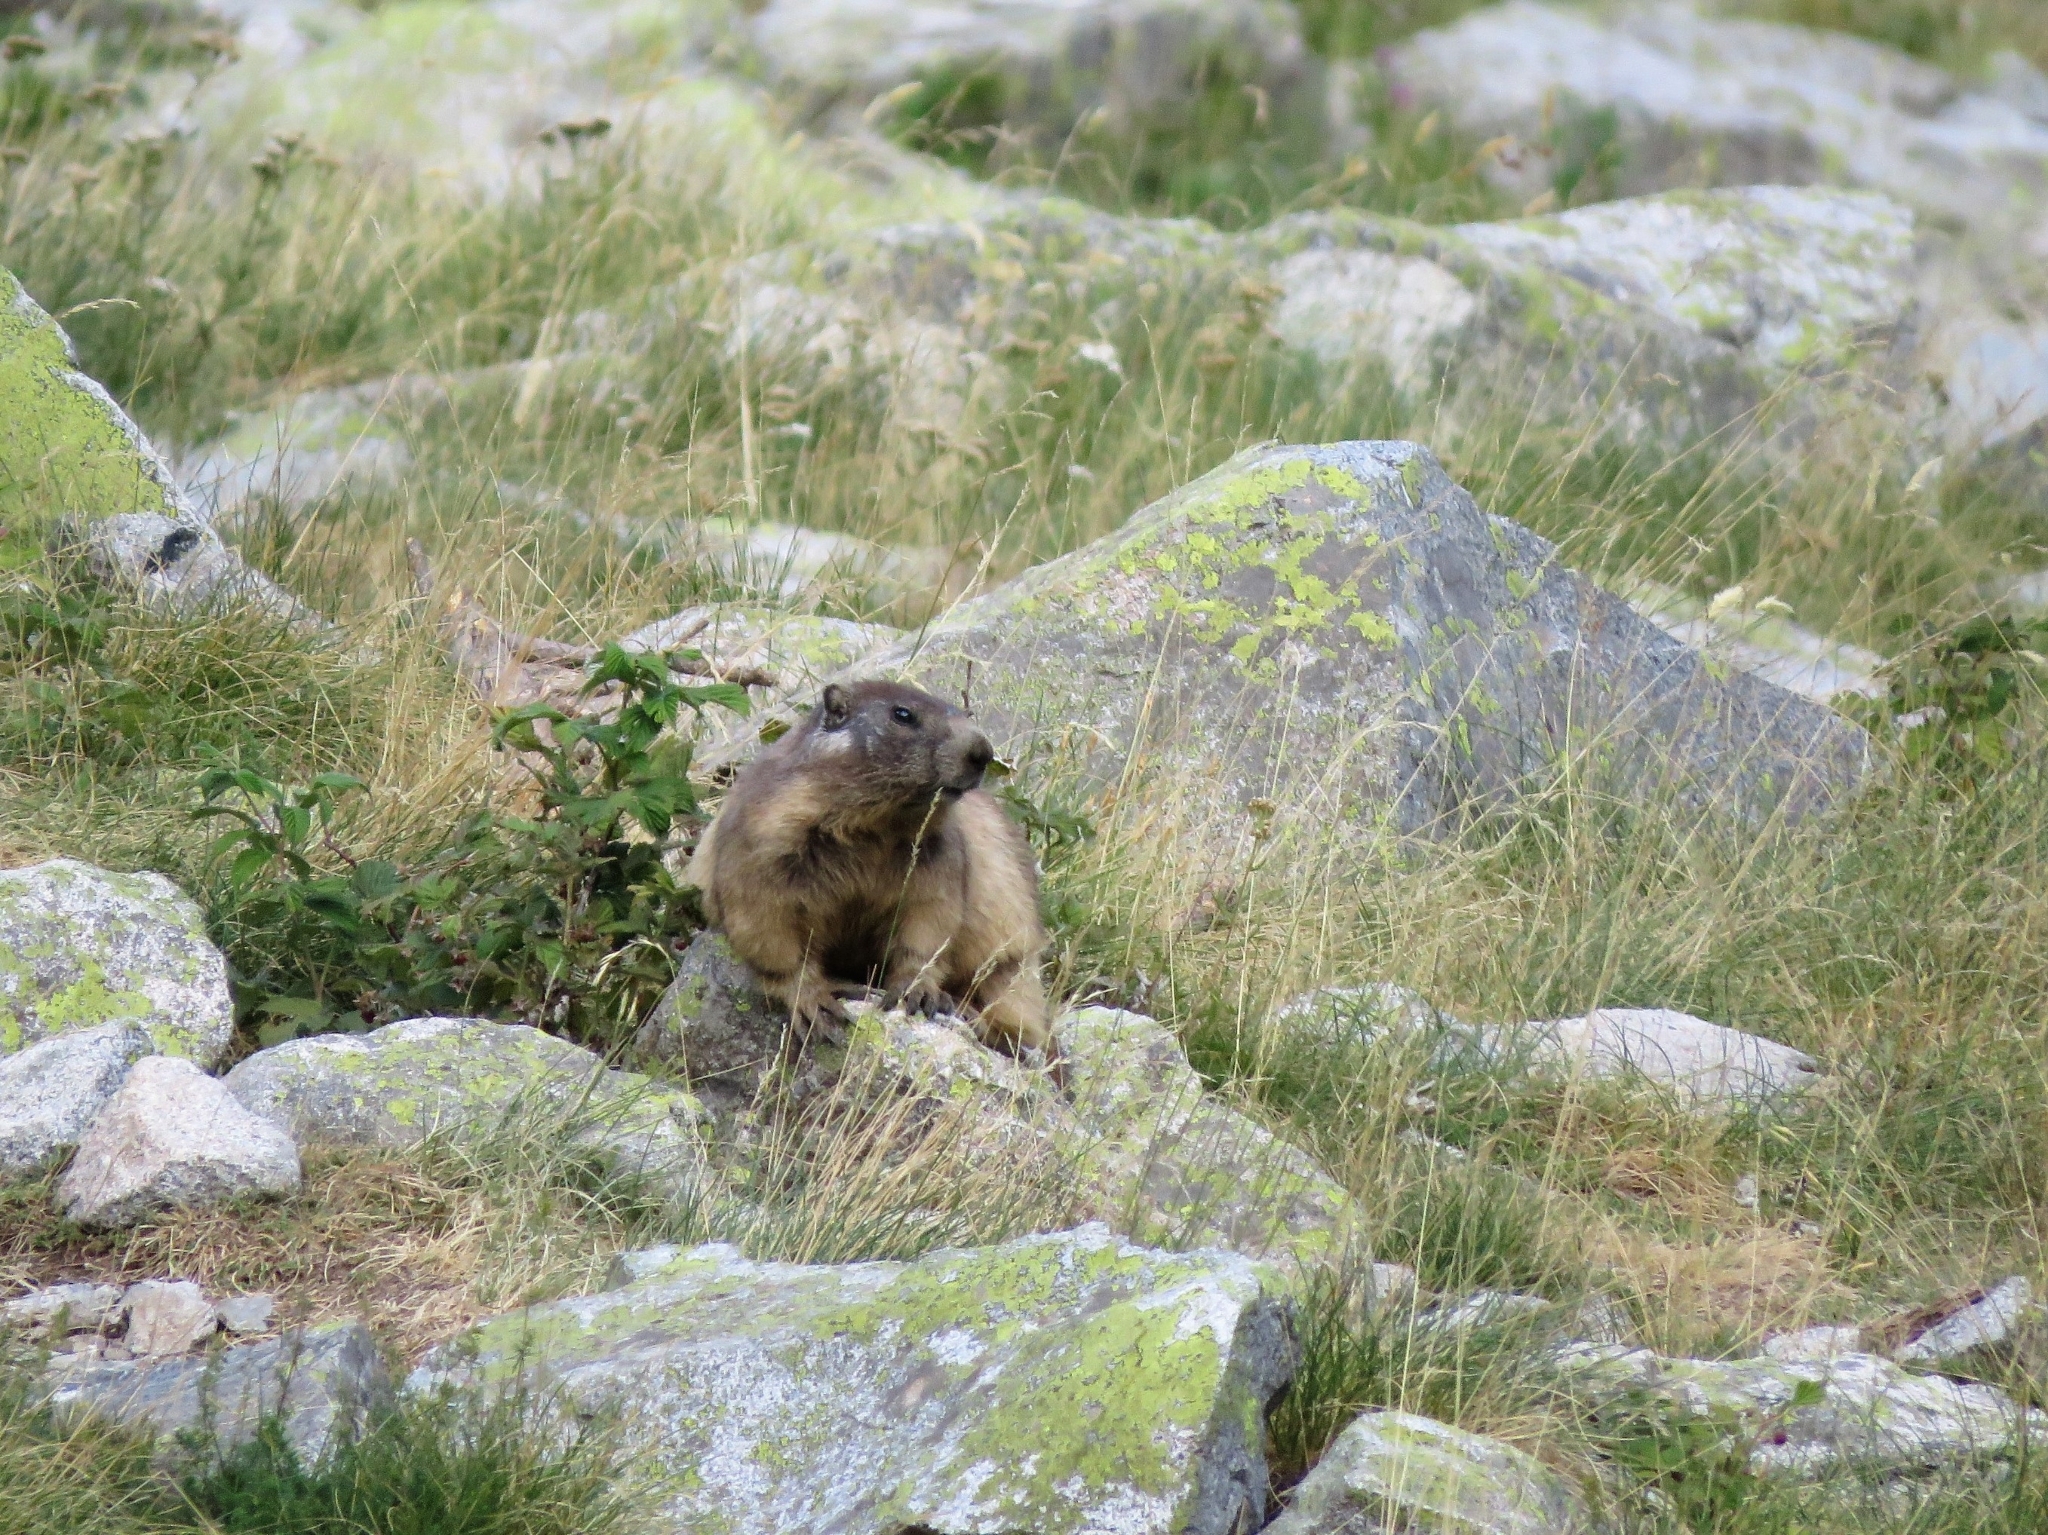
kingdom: Animalia
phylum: Chordata
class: Mammalia
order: Rodentia
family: Sciuridae
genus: Marmota
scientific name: Marmota marmota
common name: Alpine marmot
